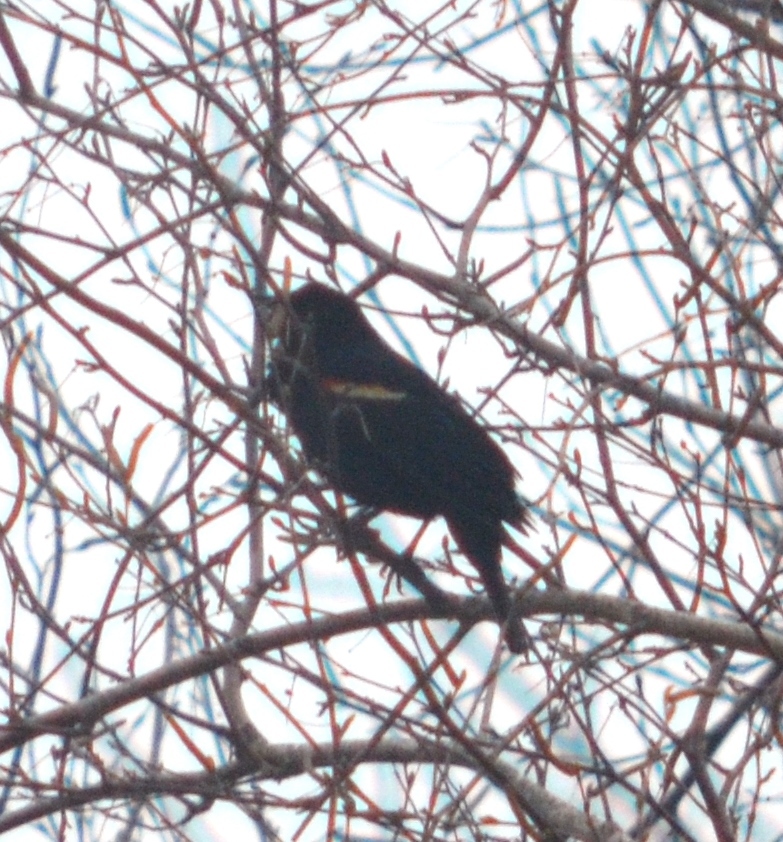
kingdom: Animalia
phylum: Chordata
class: Aves
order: Passeriformes
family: Icteridae
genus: Agelaius
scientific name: Agelaius phoeniceus
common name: Red-winged blackbird
